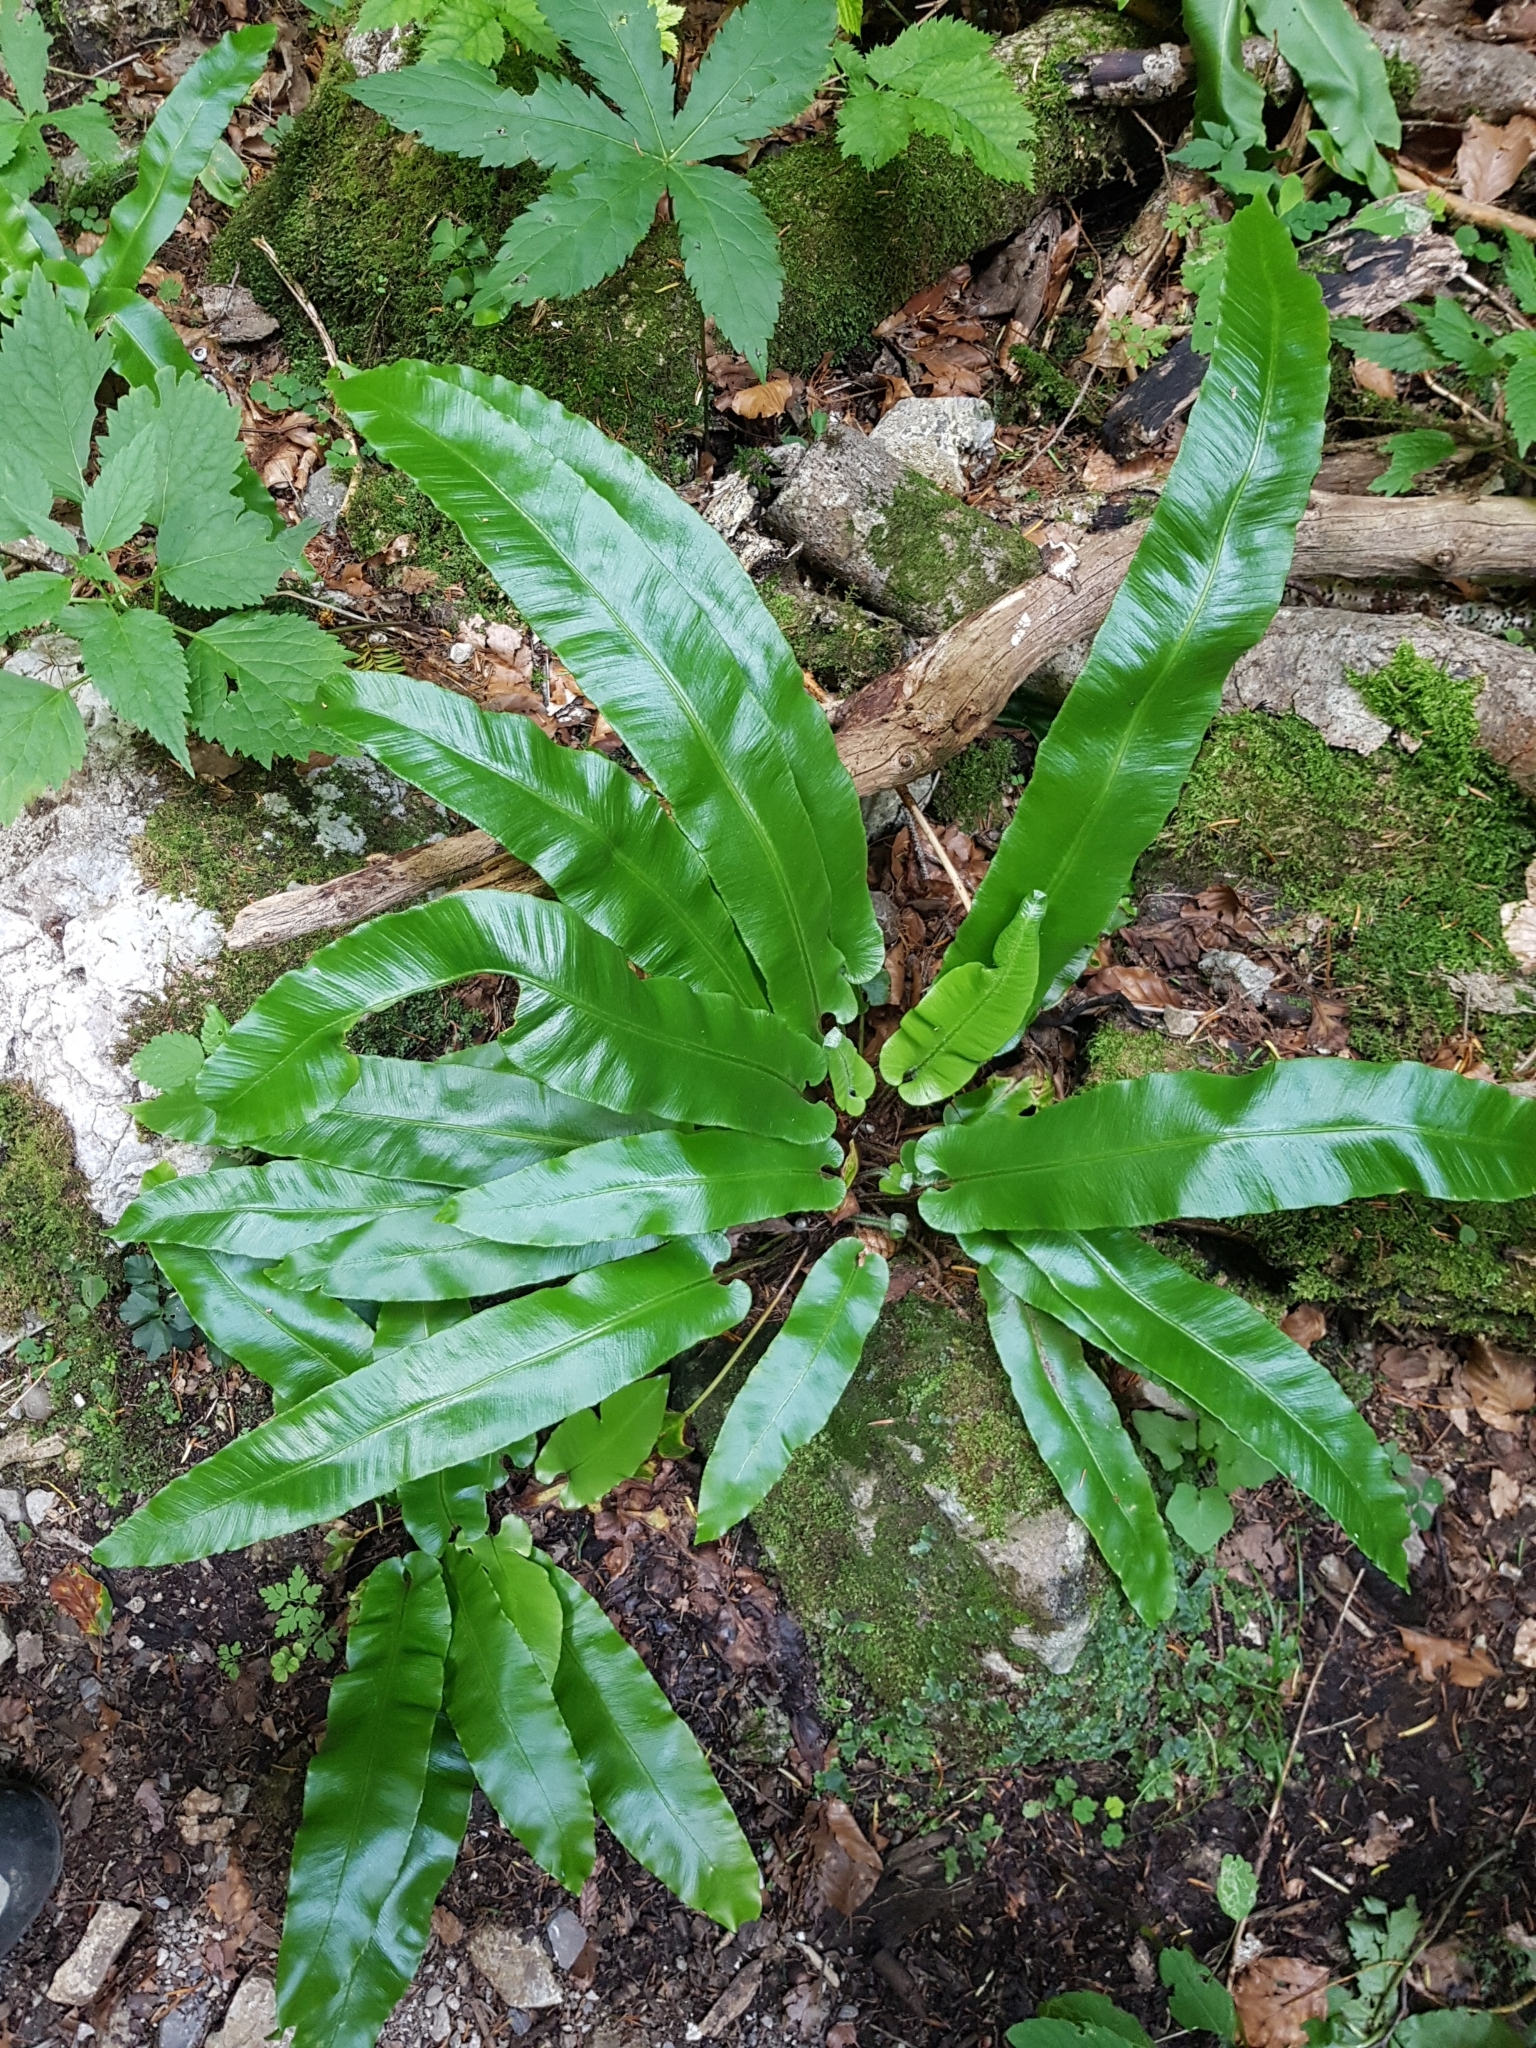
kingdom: Plantae
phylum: Tracheophyta
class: Polypodiopsida
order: Polypodiales
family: Aspleniaceae
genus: Asplenium
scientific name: Asplenium scolopendrium
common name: Hart's-tongue fern
